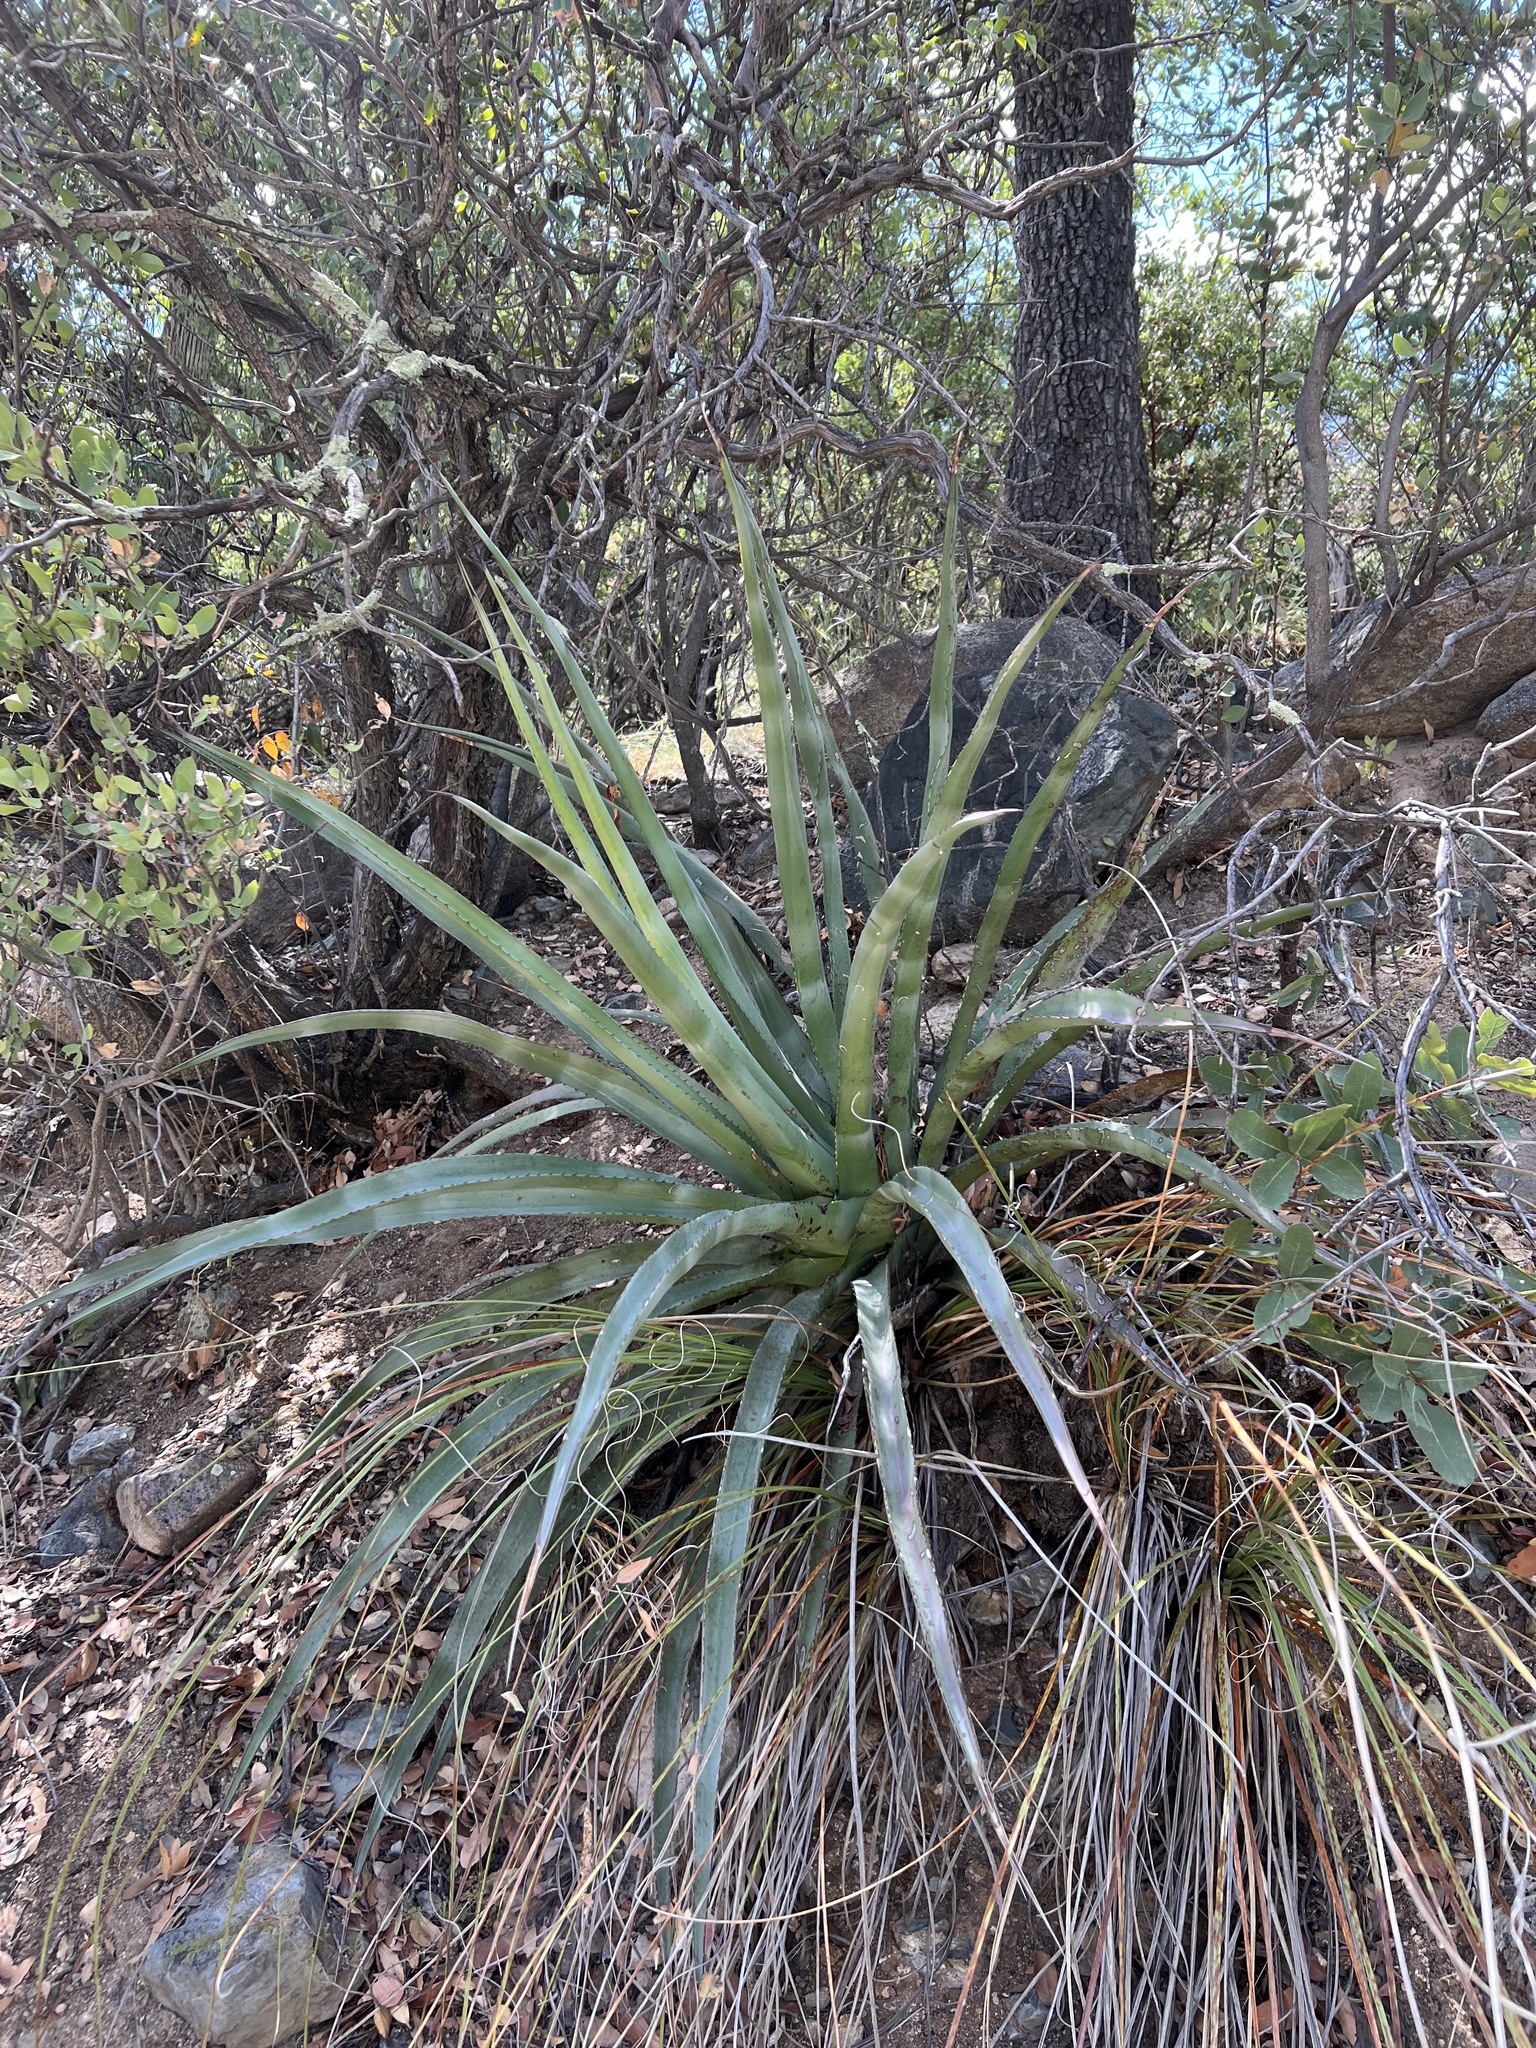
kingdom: Plantae
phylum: Tracheophyta
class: Liliopsida
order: Asparagales
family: Asparagaceae
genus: Agave
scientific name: Agave palmeri
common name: Palmer agave
